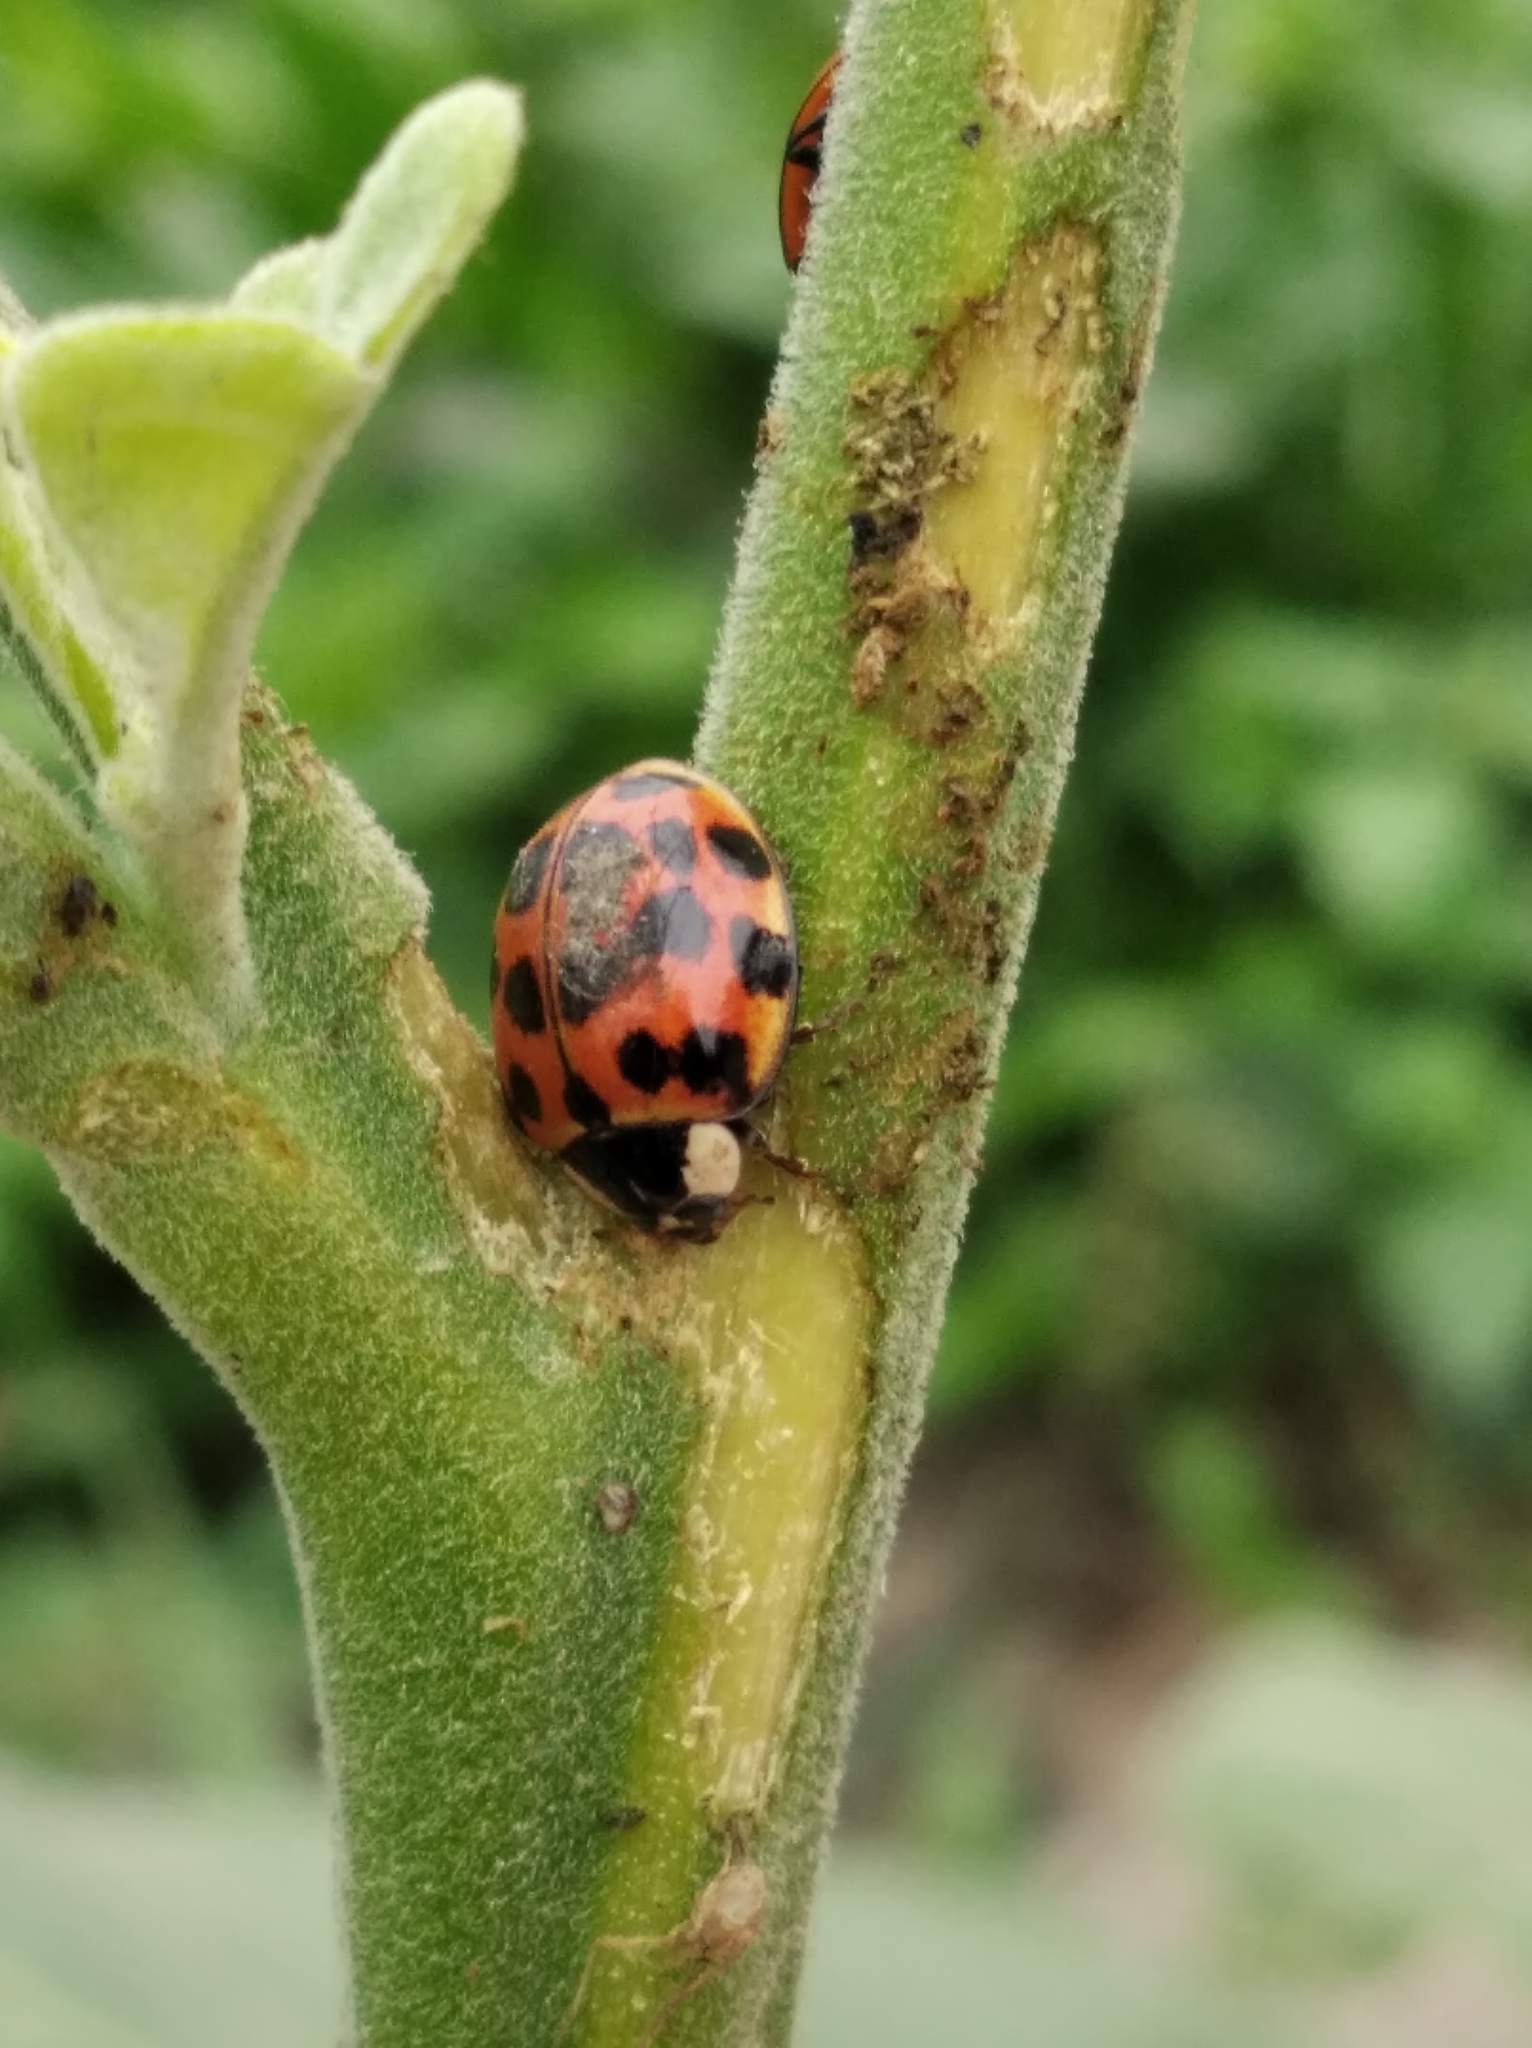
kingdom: Animalia
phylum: Arthropoda
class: Insecta
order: Coleoptera
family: Coccinellidae
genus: Harmonia
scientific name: Harmonia axyridis
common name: Harlequin ladybird
